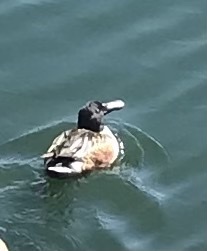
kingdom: Animalia
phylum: Chordata
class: Aves
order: Anseriformes
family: Anatidae
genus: Spatula
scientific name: Spatula clypeata
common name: Northern shoveler
